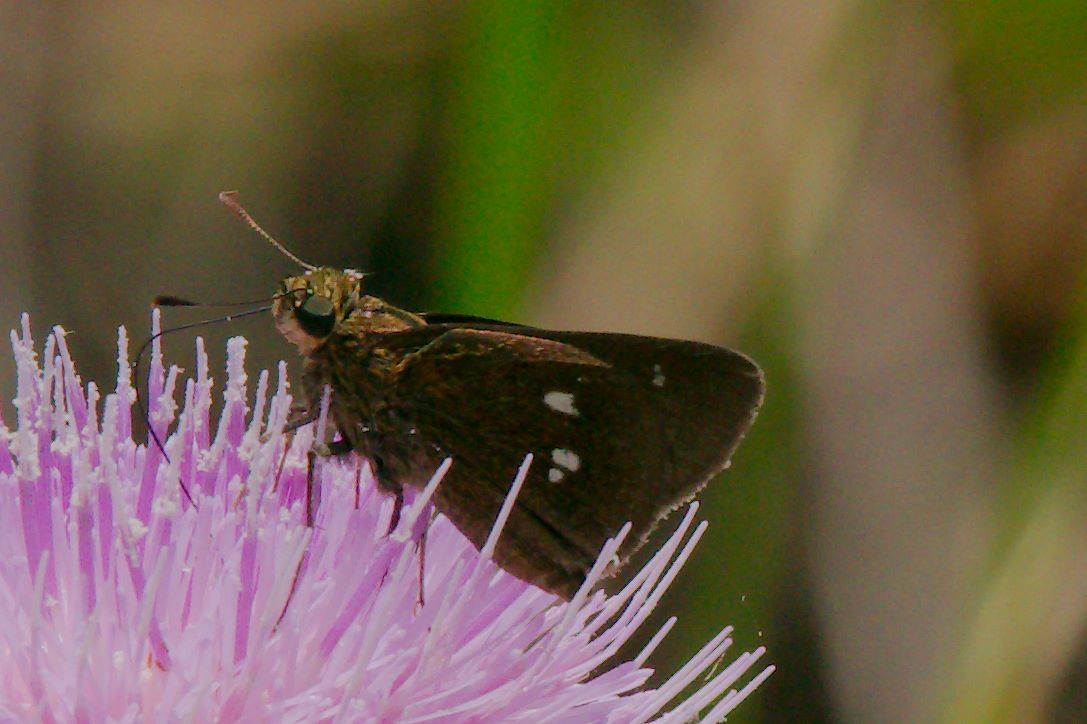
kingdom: Animalia
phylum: Arthropoda
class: Insecta
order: Lepidoptera
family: Hesperiidae
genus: Oligoria
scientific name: Oligoria maculata
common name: Twin-spot skipper
